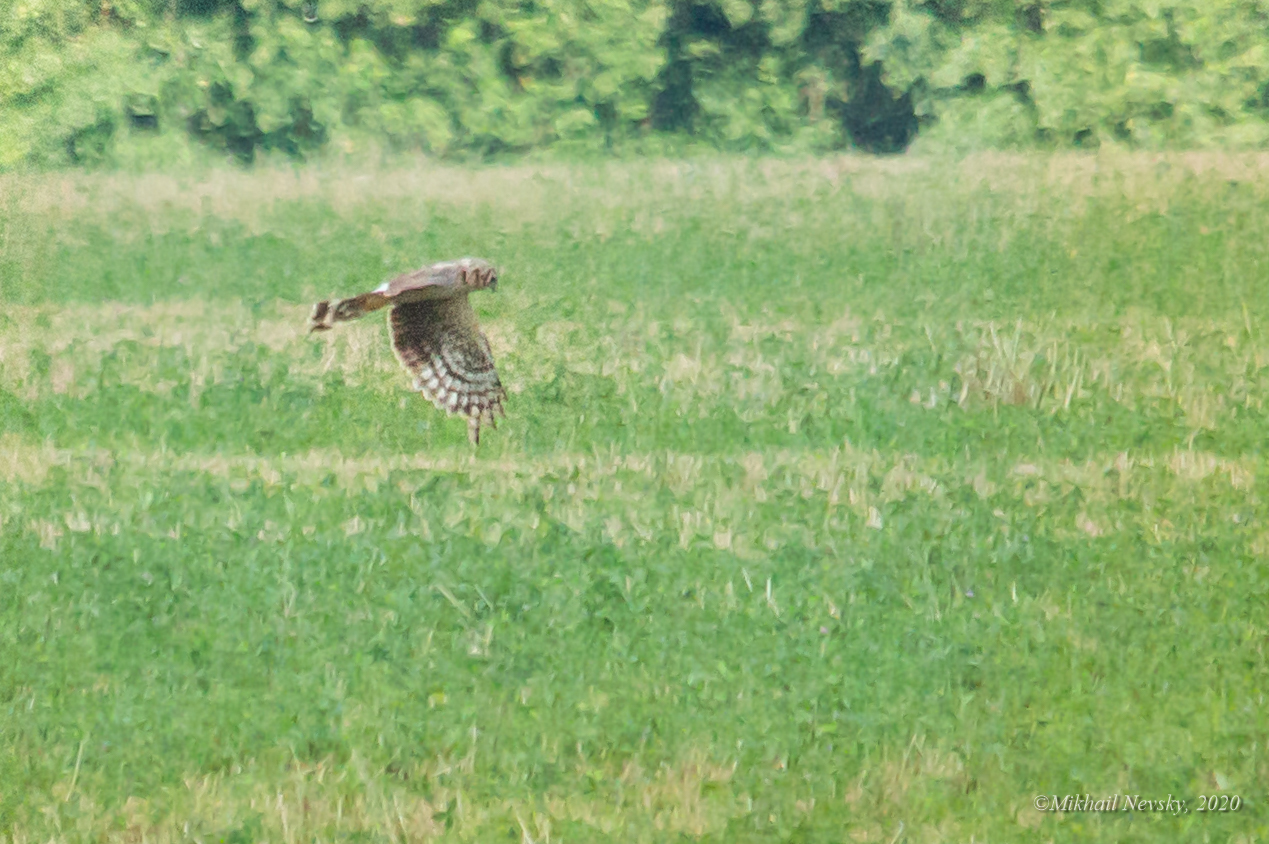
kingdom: Animalia
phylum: Chordata
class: Aves
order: Accipitriformes
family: Accipitridae
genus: Circus
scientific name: Circus macrourus
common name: Pallid harrier
